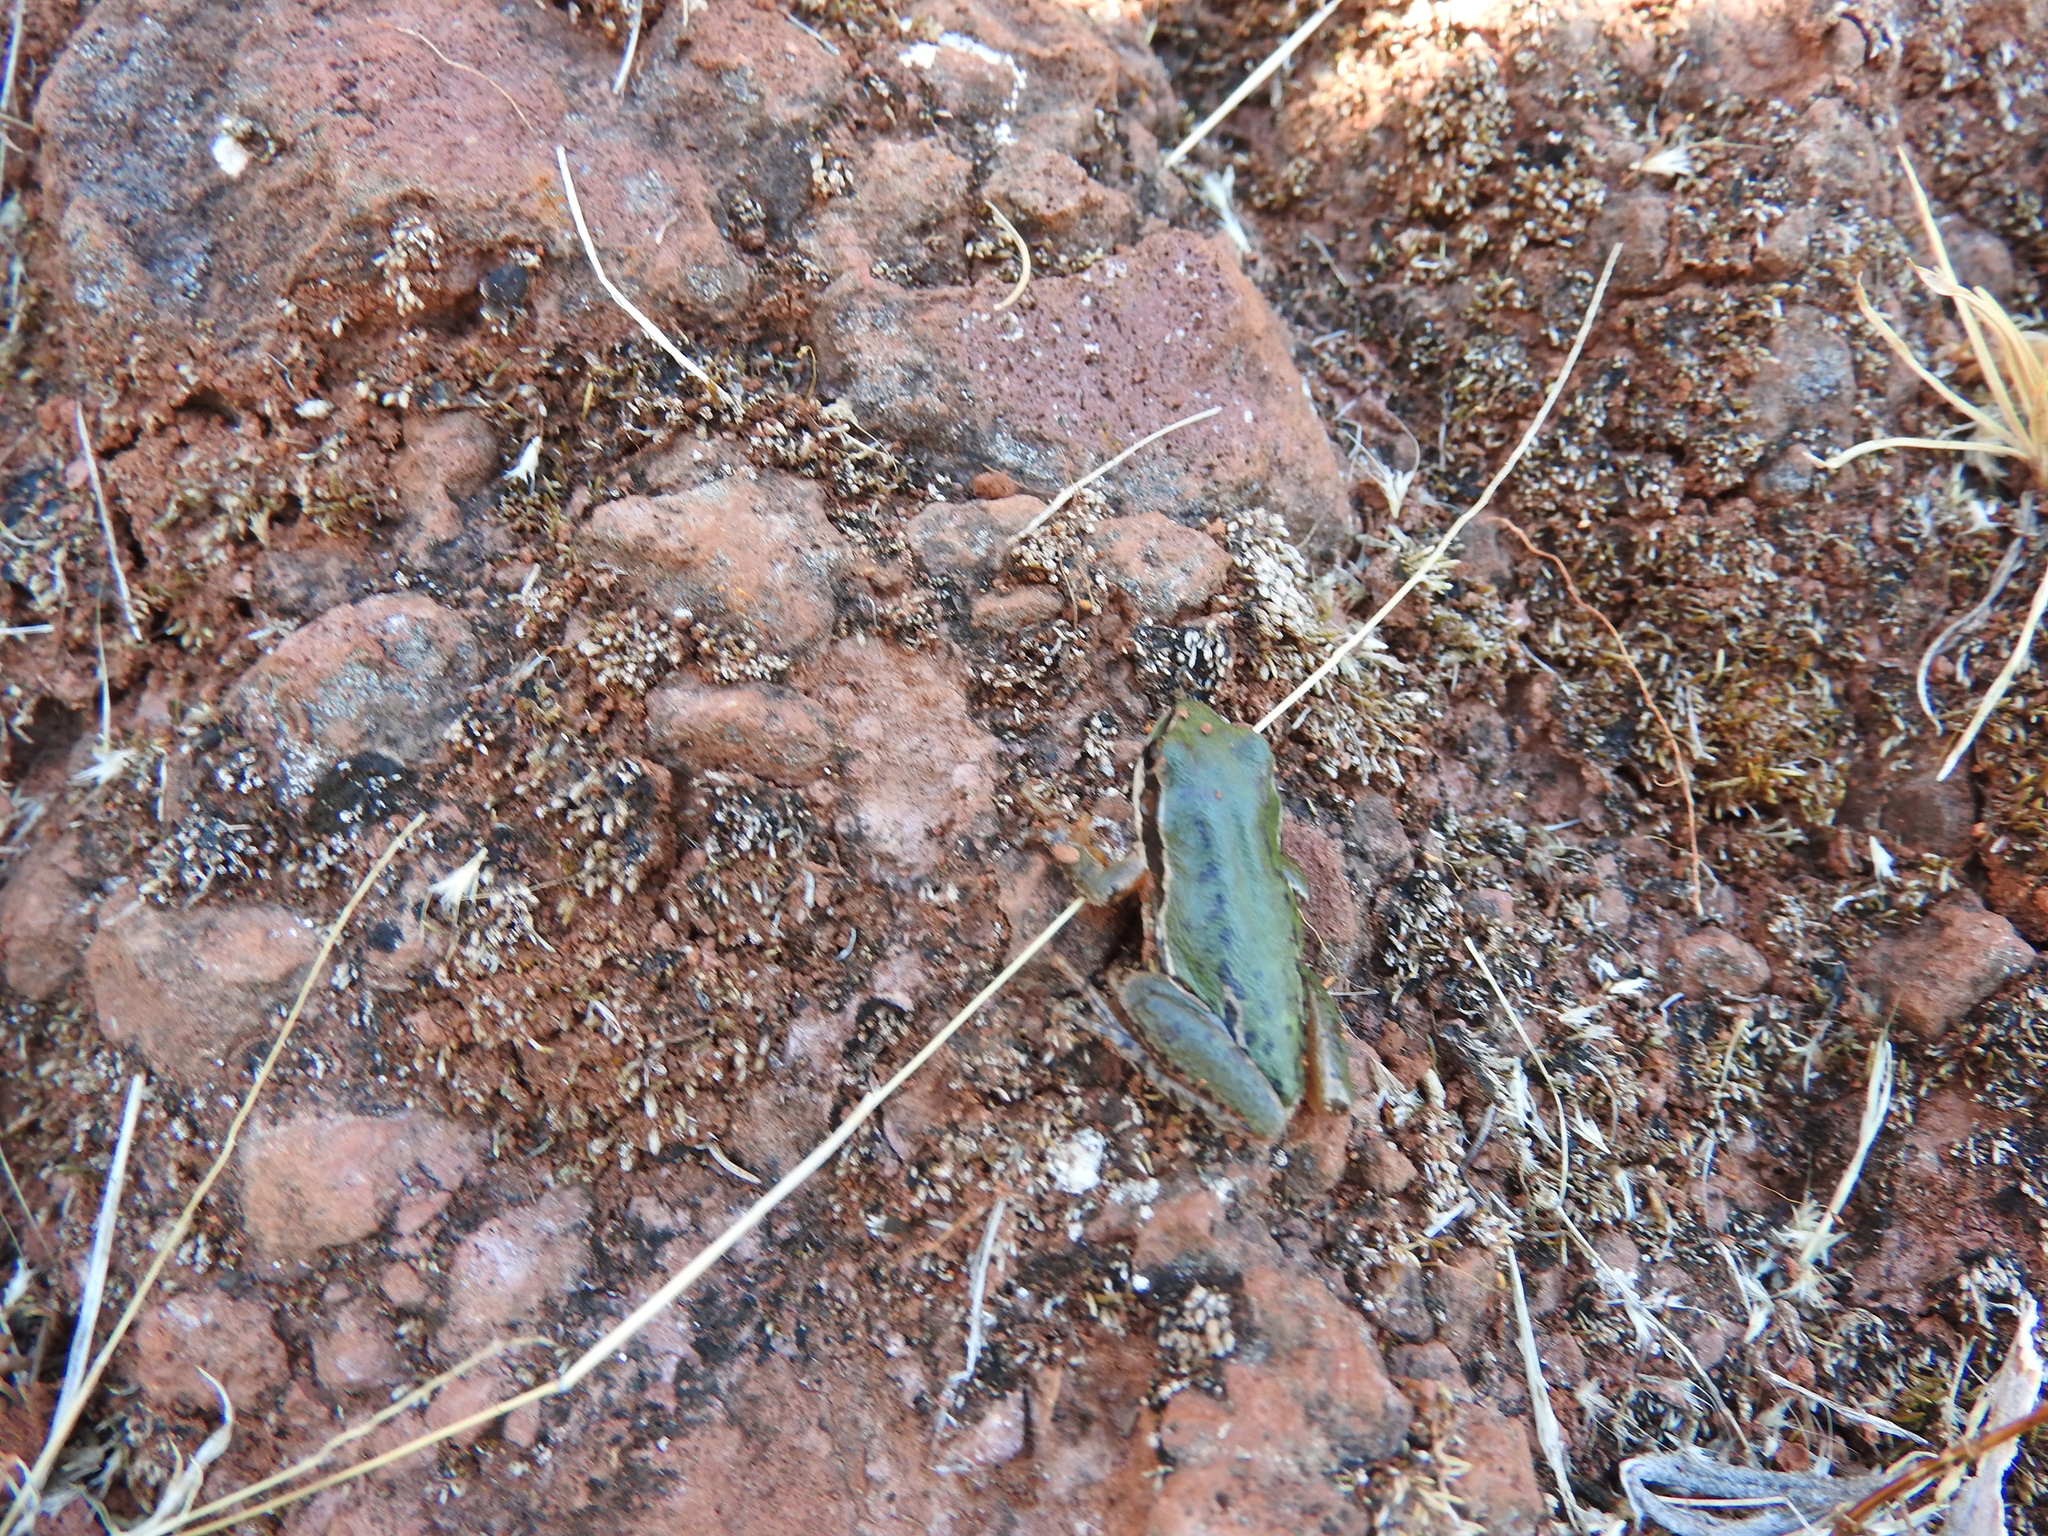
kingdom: Animalia
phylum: Chordata
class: Amphibia
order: Anura
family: Hylidae
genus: Dryophytes
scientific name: Dryophytes eximius
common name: Mountain treefrog
